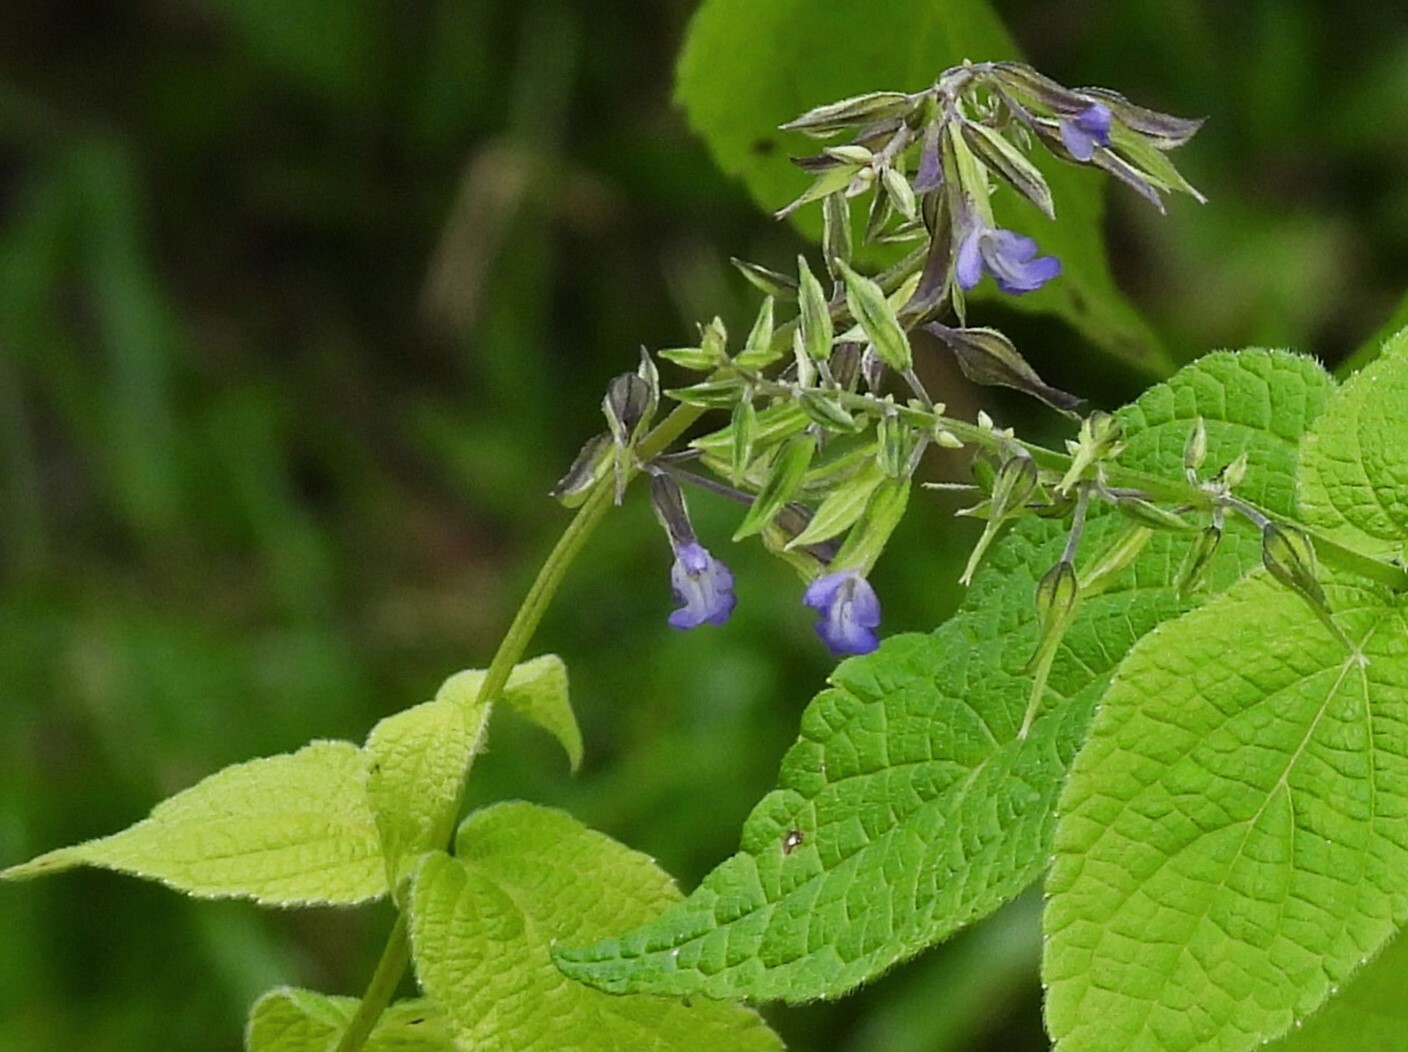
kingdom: Plantae
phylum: Tracheophyta
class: Magnoliopsida
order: Lamiales
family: Lamiaceae
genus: Salvia
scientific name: Salvia stachydifolia
